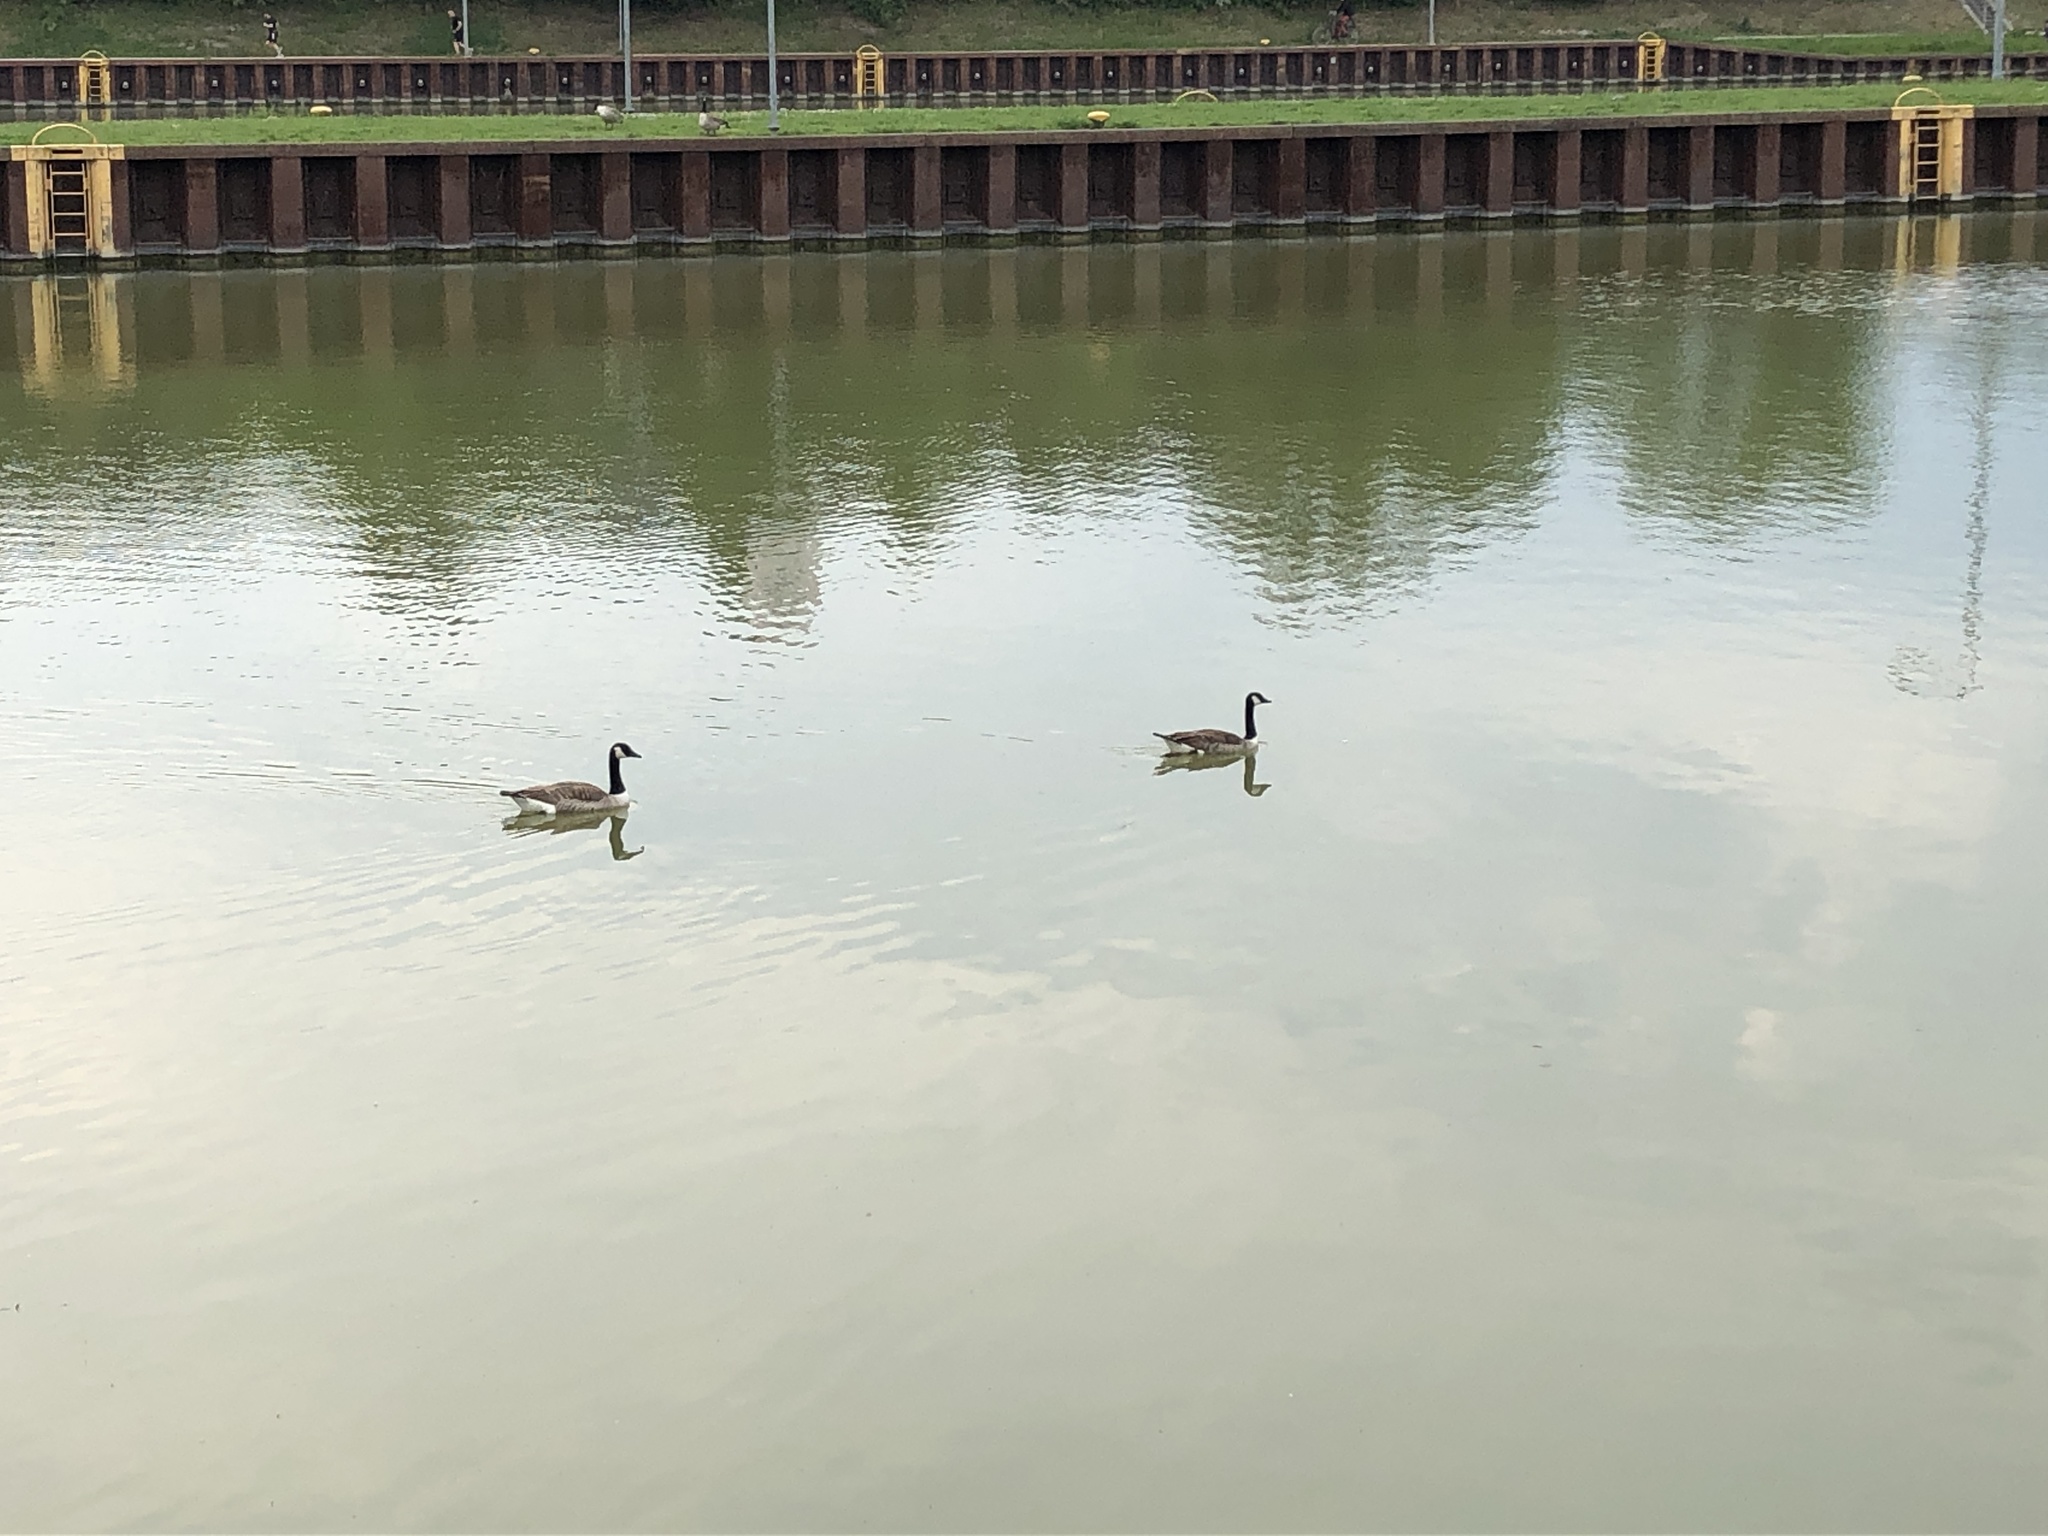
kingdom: Animalia
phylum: Chordata
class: Aves
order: Anseriformes
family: Anatidae
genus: Branta
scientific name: Branta canadensis
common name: Canada goose
